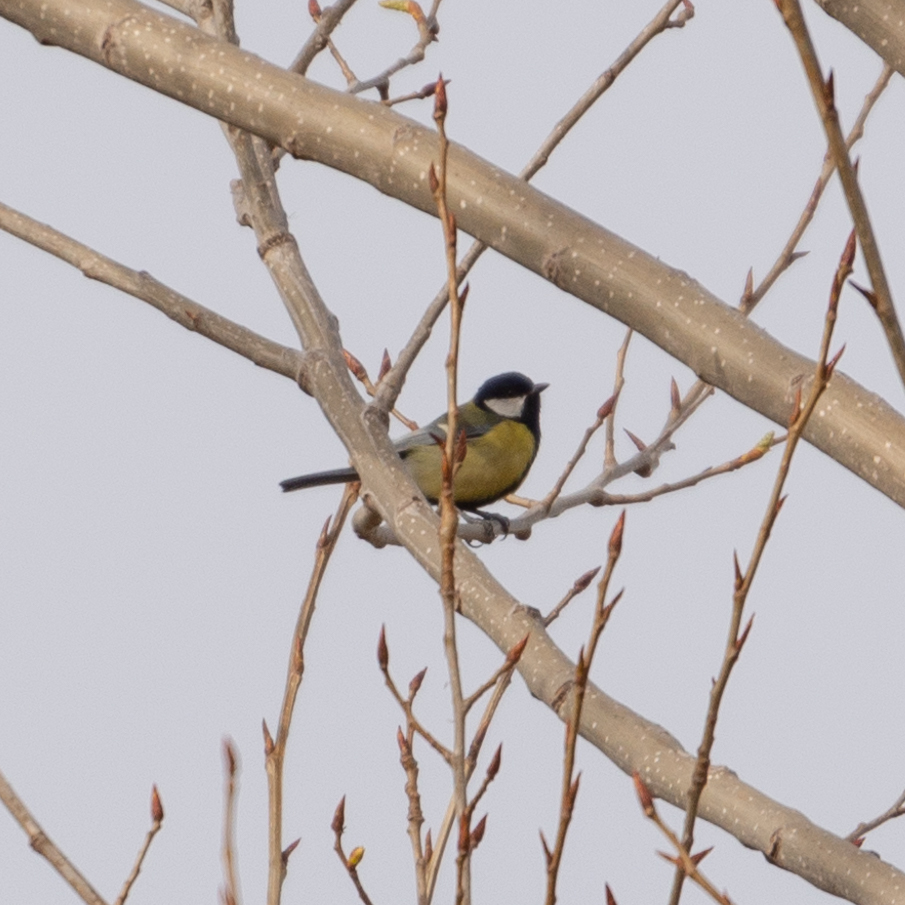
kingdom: Animalia
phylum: Chordata
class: Aves
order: Passeriformes
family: Paridae
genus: Parus
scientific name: Parus major
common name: Great tit
